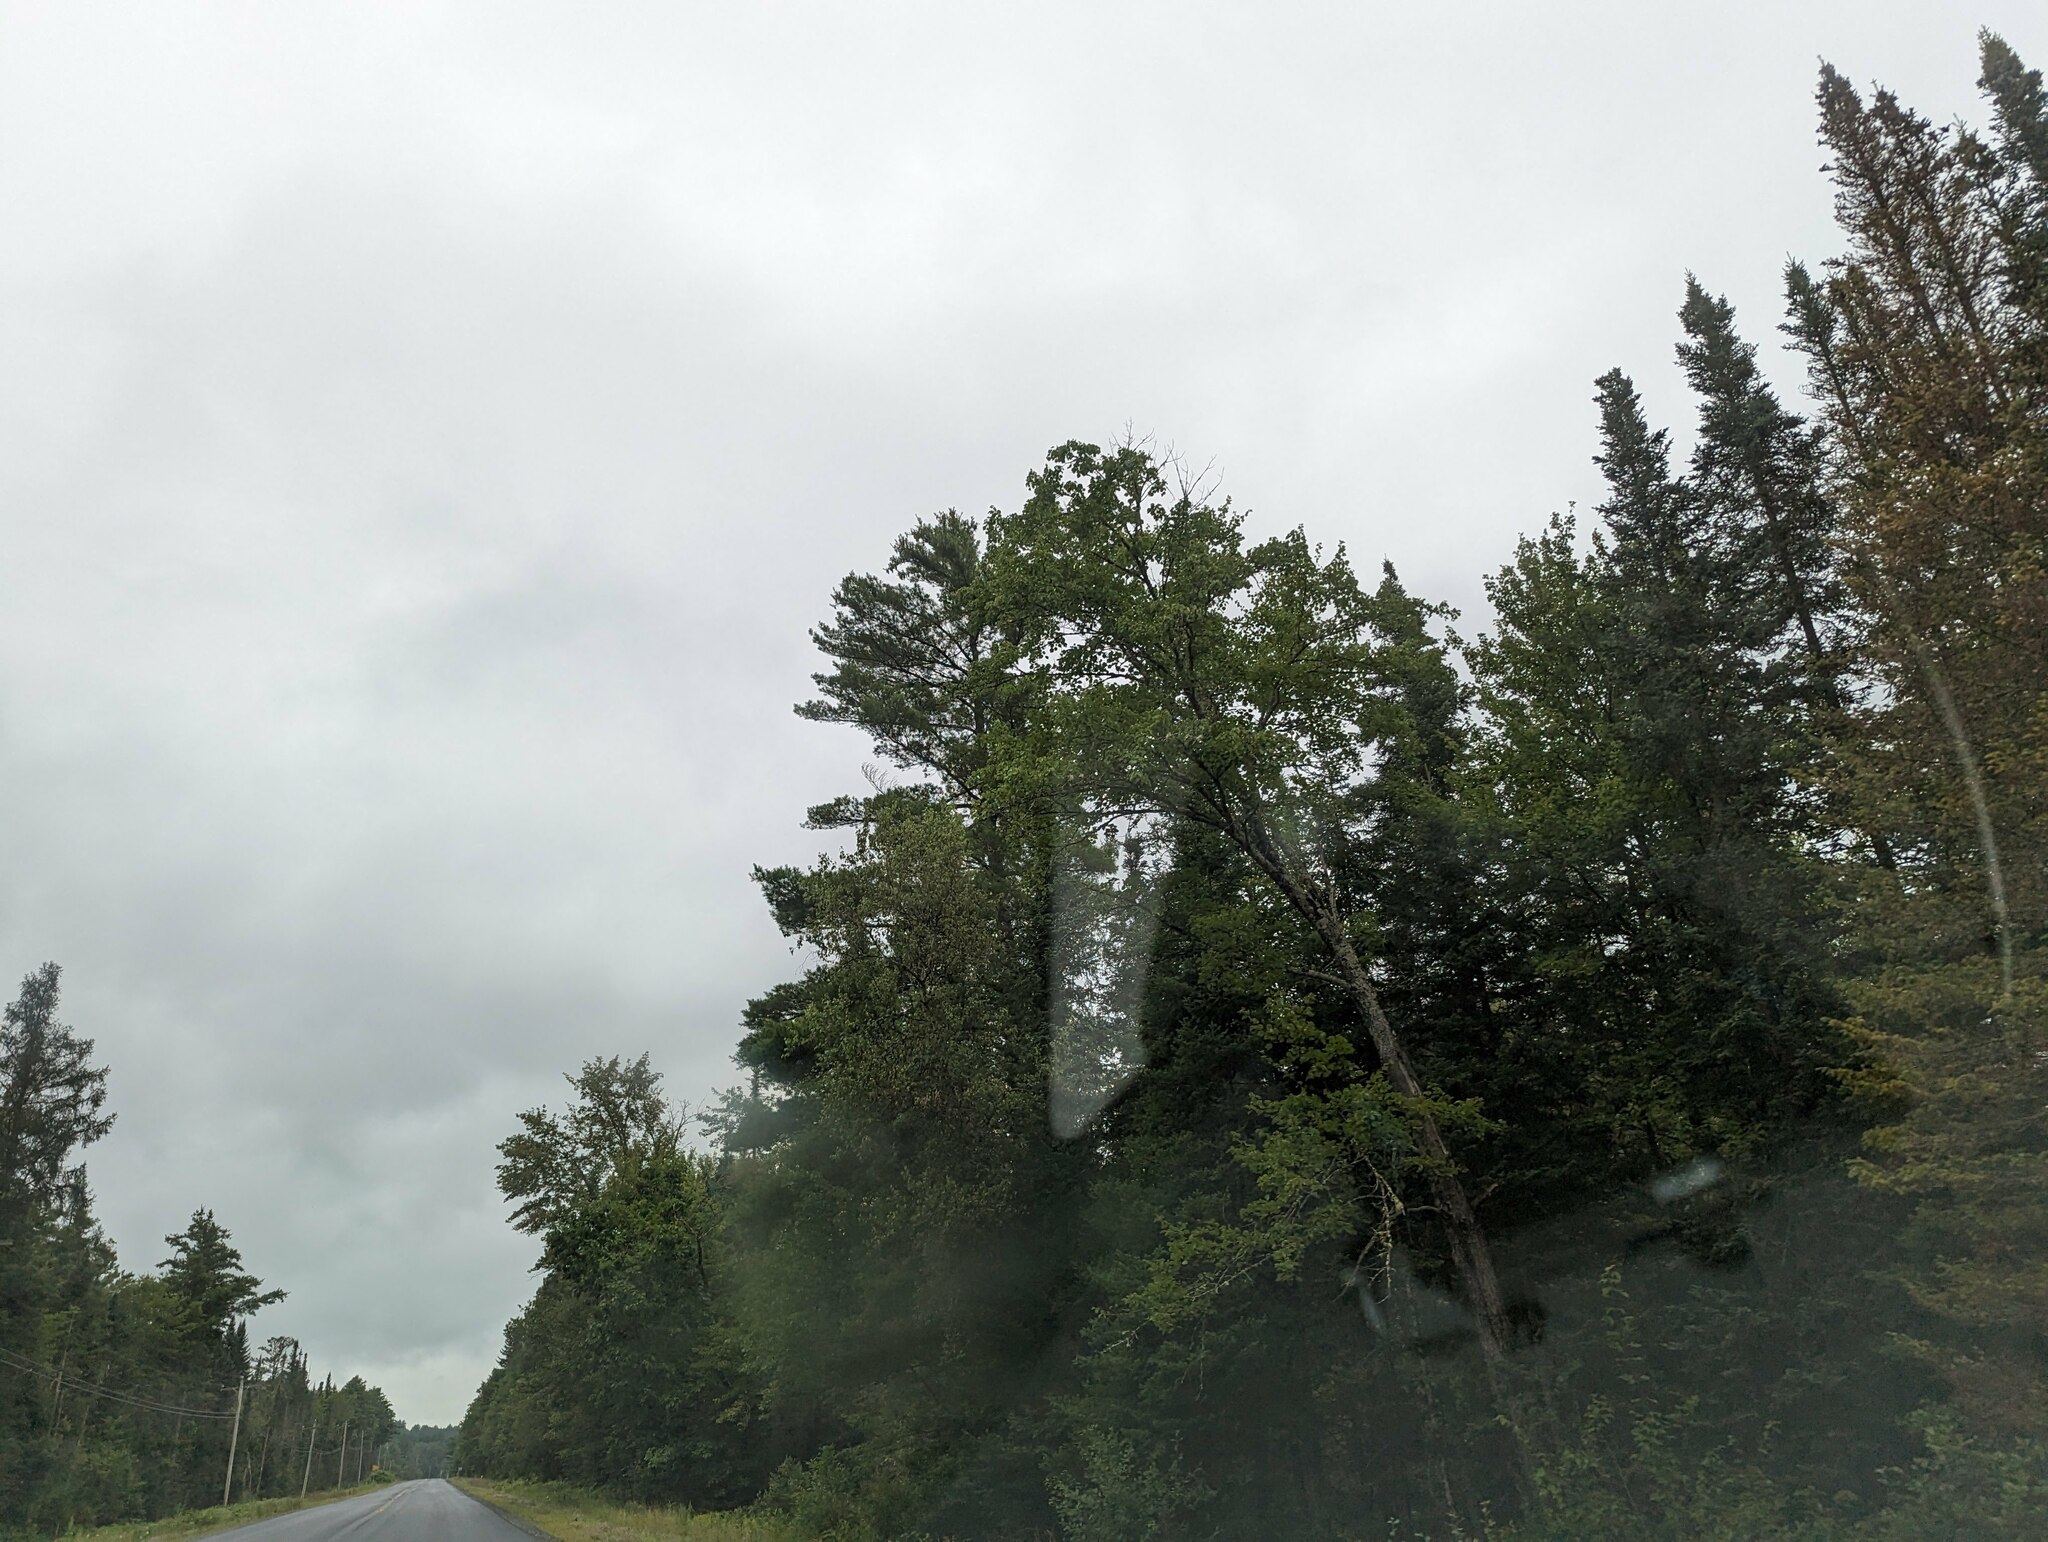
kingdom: Plantae
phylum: Tracheophyta
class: Pinopsida
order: Pinales
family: Pinaceae
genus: Pinus
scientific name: Pinus strobus
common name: Weymouth pine
